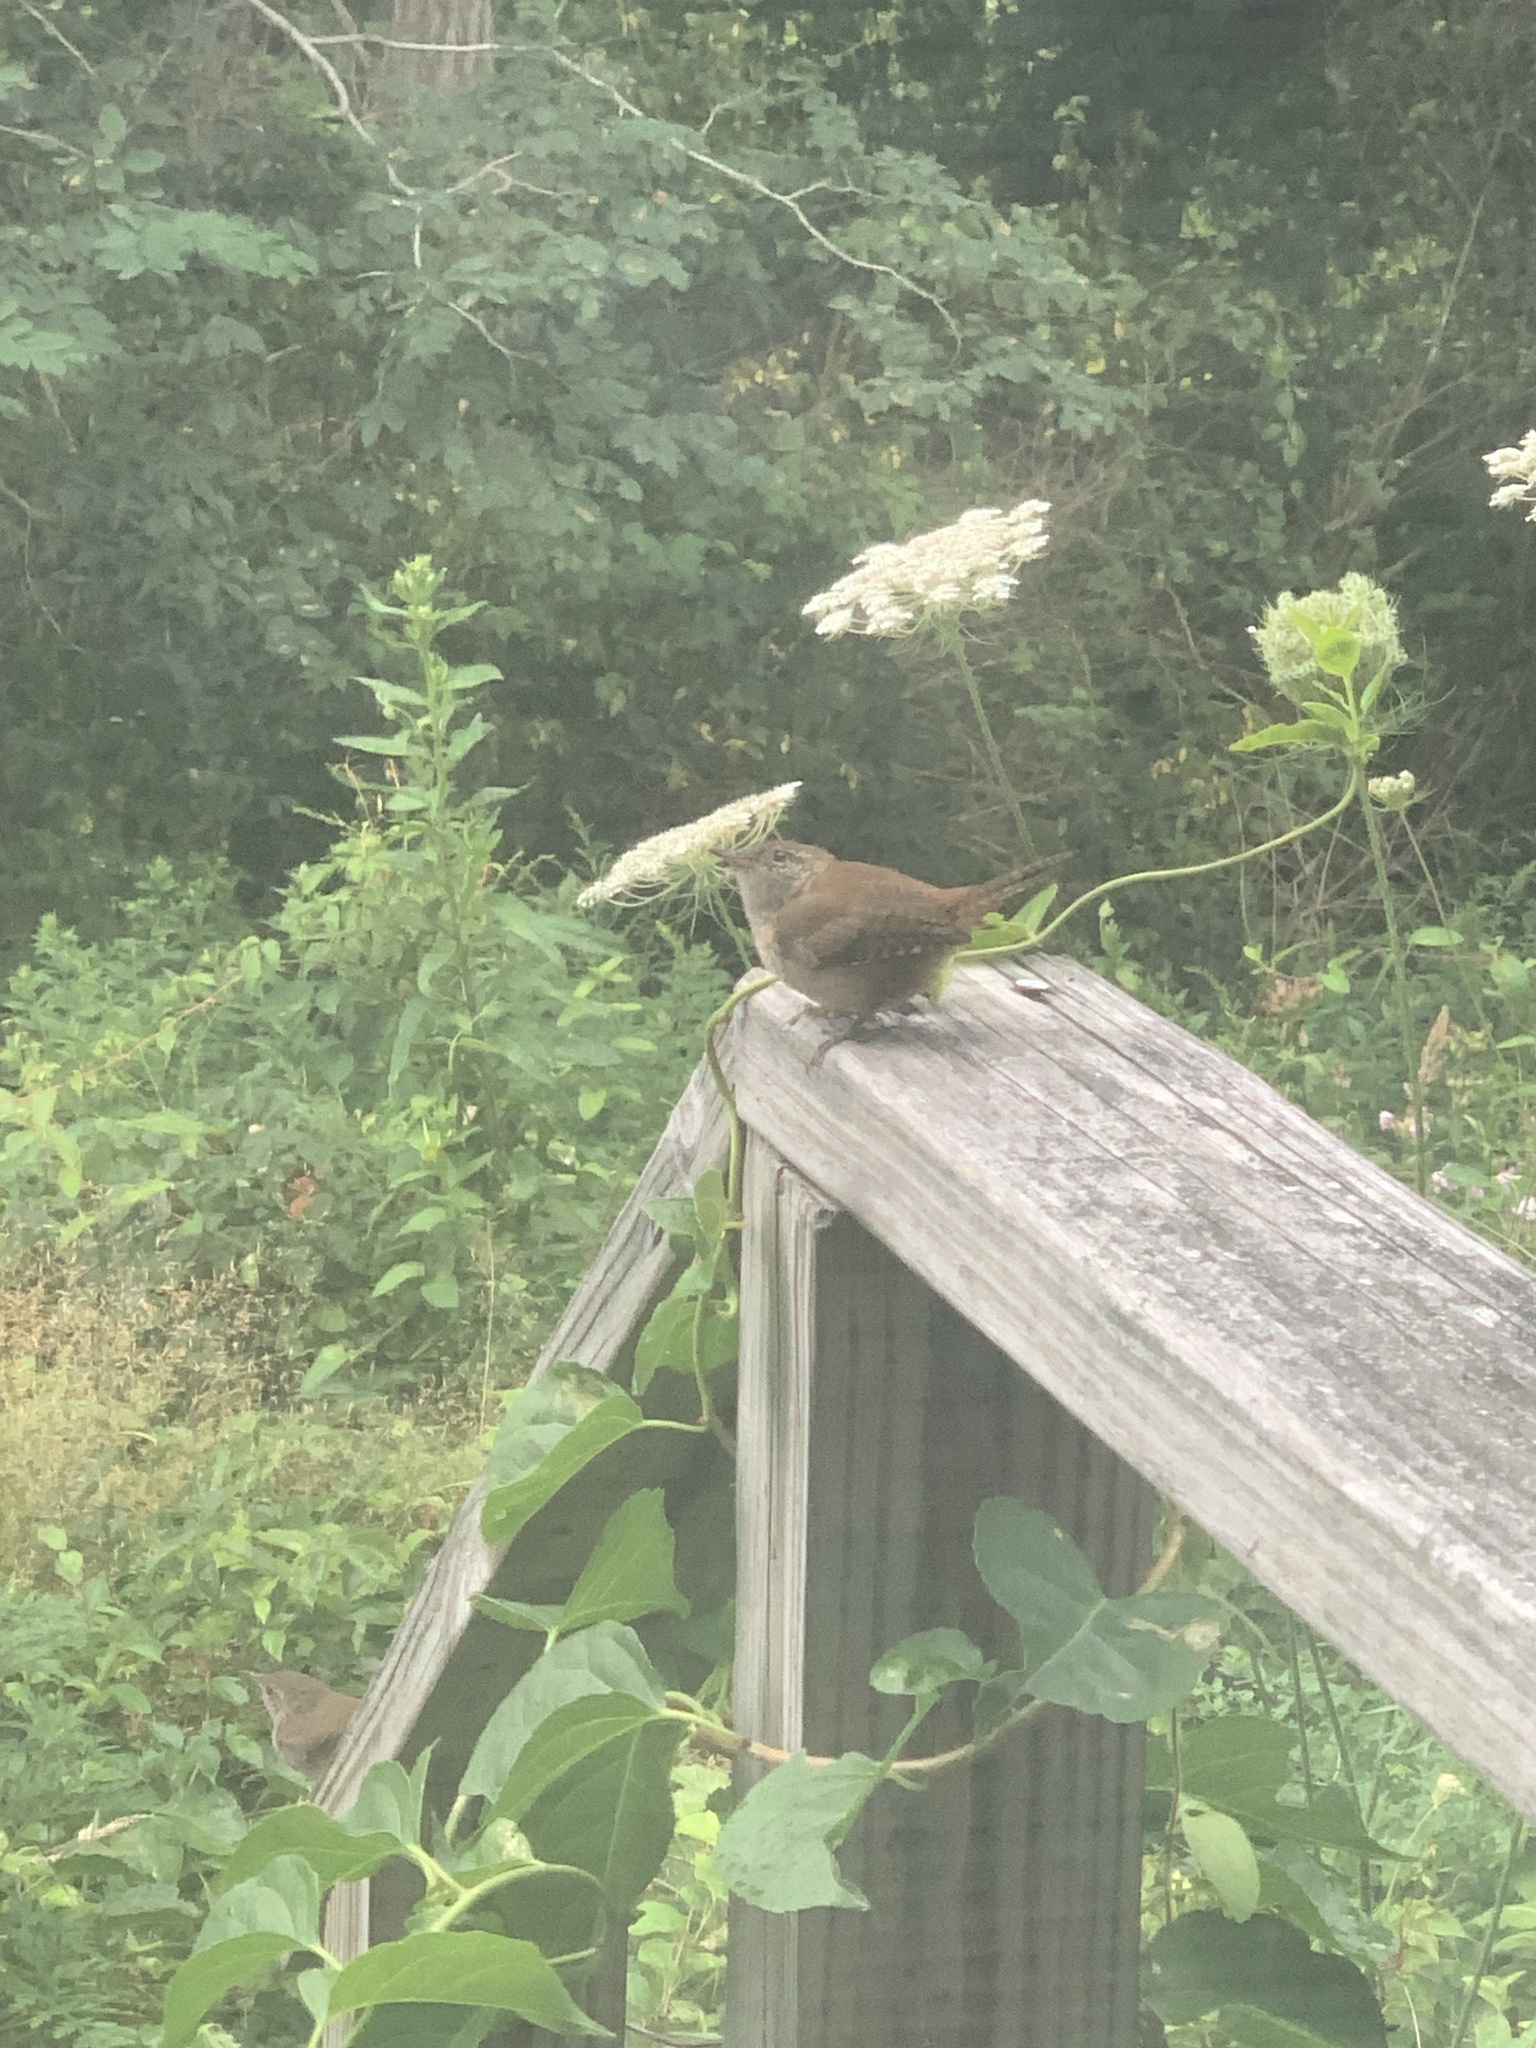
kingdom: Animalia
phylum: Chordata
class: Aves
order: Passeriformes
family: Troglodytidae
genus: Troglodytes
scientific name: Troglodytes aedon
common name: House wren
